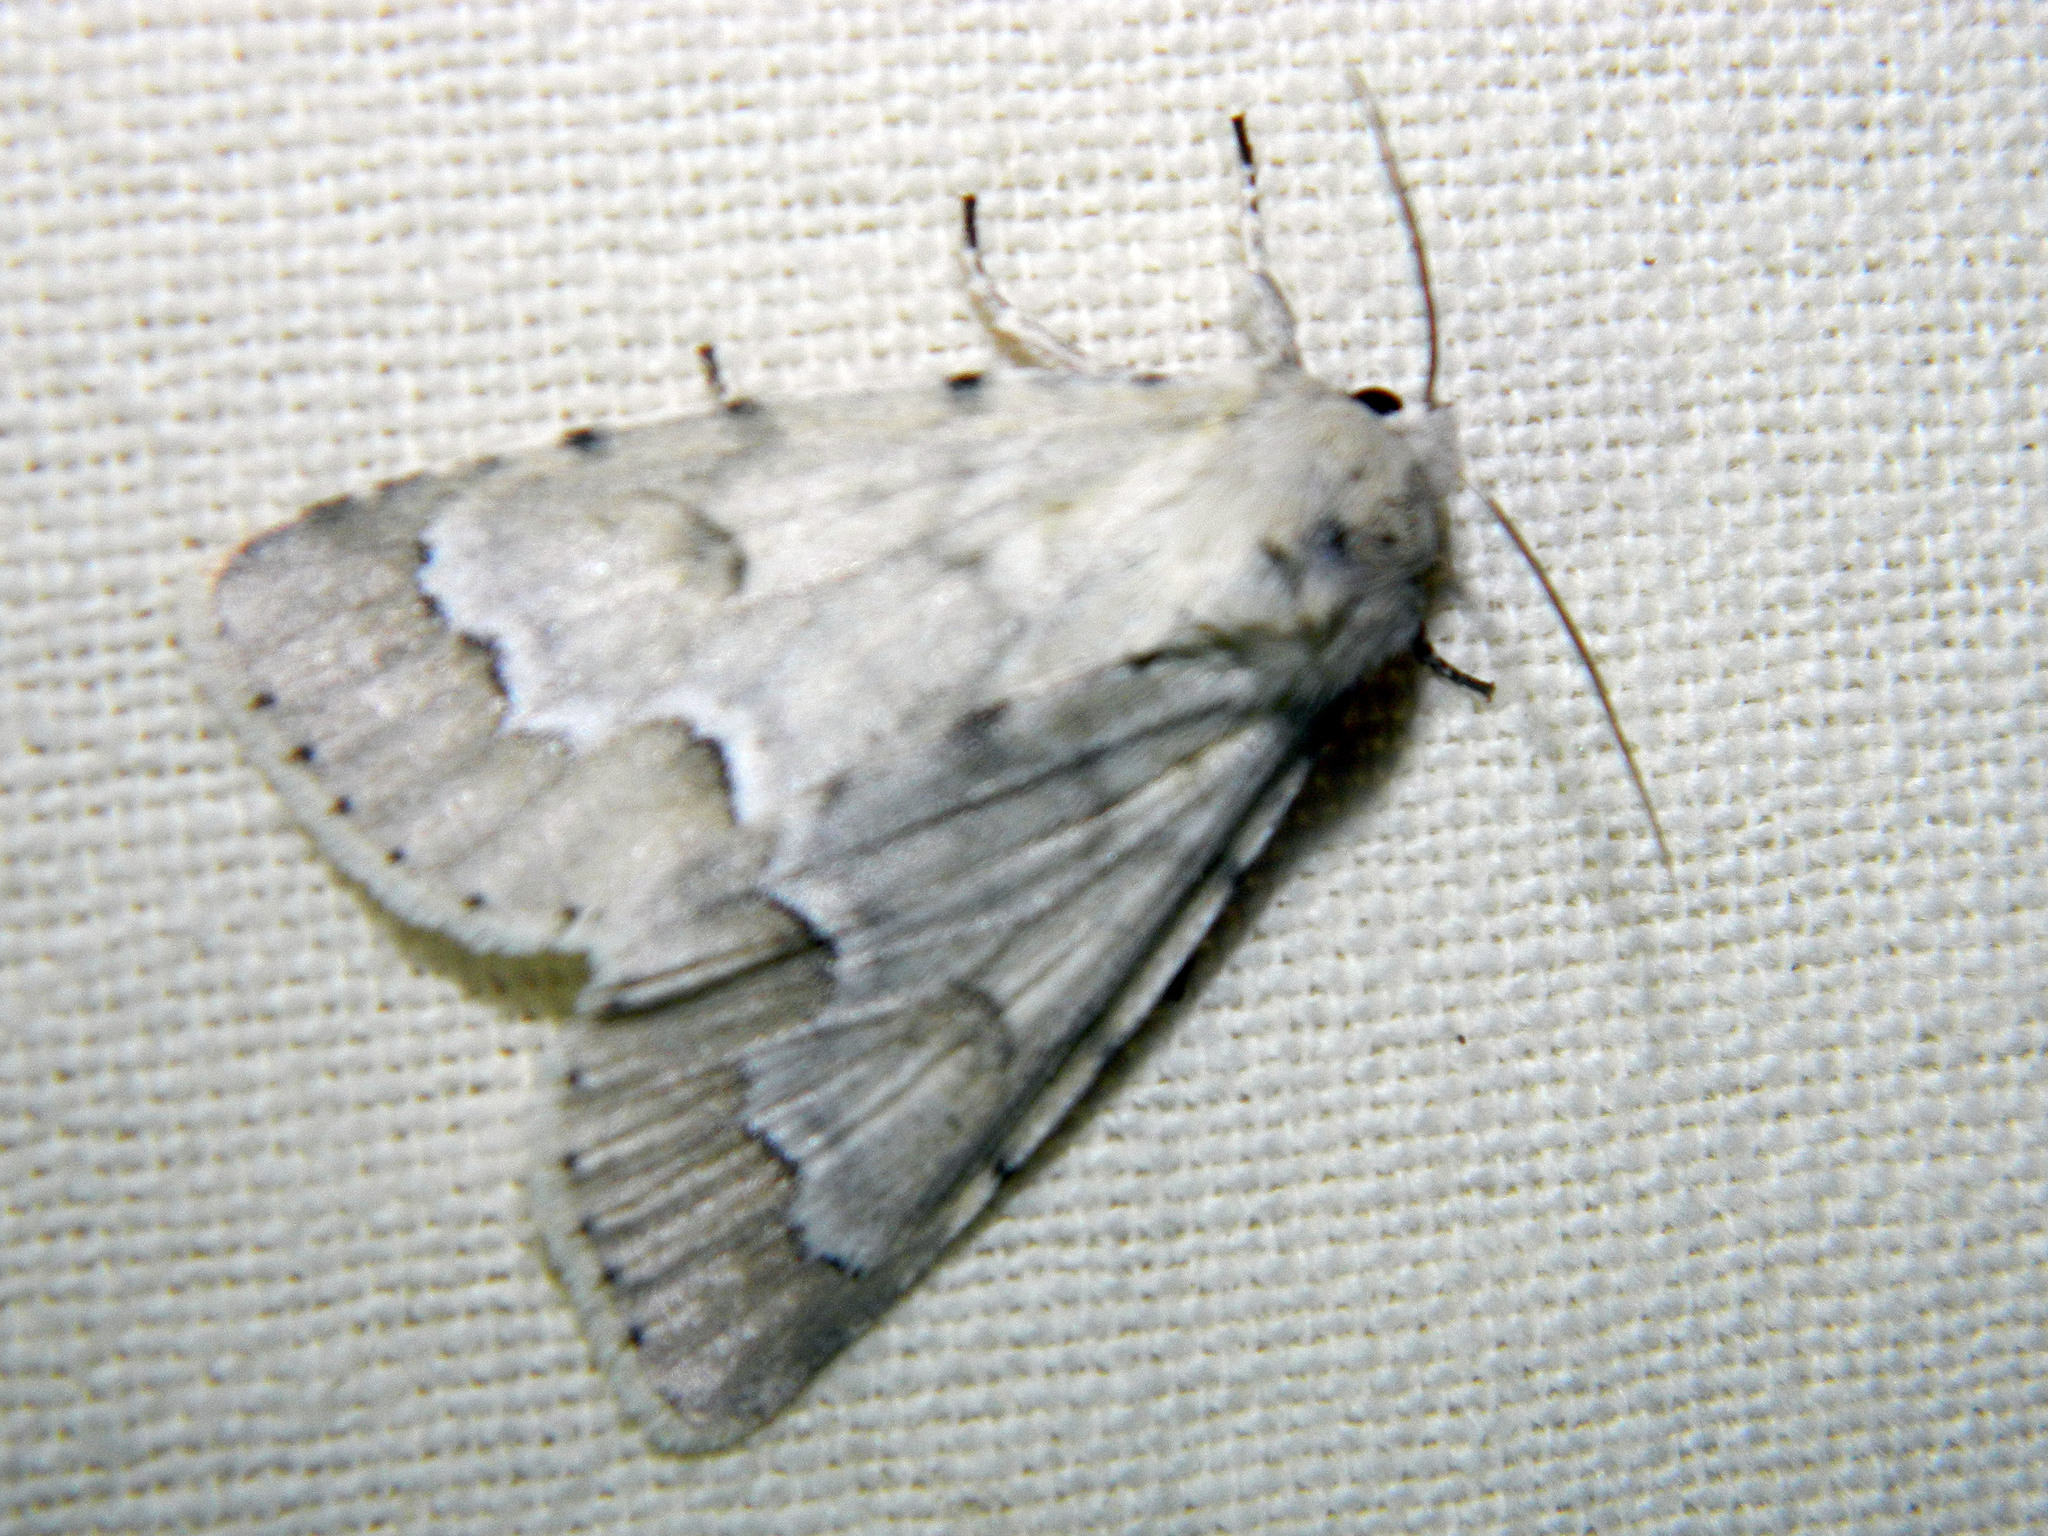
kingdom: Animalia
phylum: Arthropoda
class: Insecta
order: Lepidoptera
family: Noctuidae
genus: Acronicta
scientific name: Acronicta innotata
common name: Unmarked dagger
